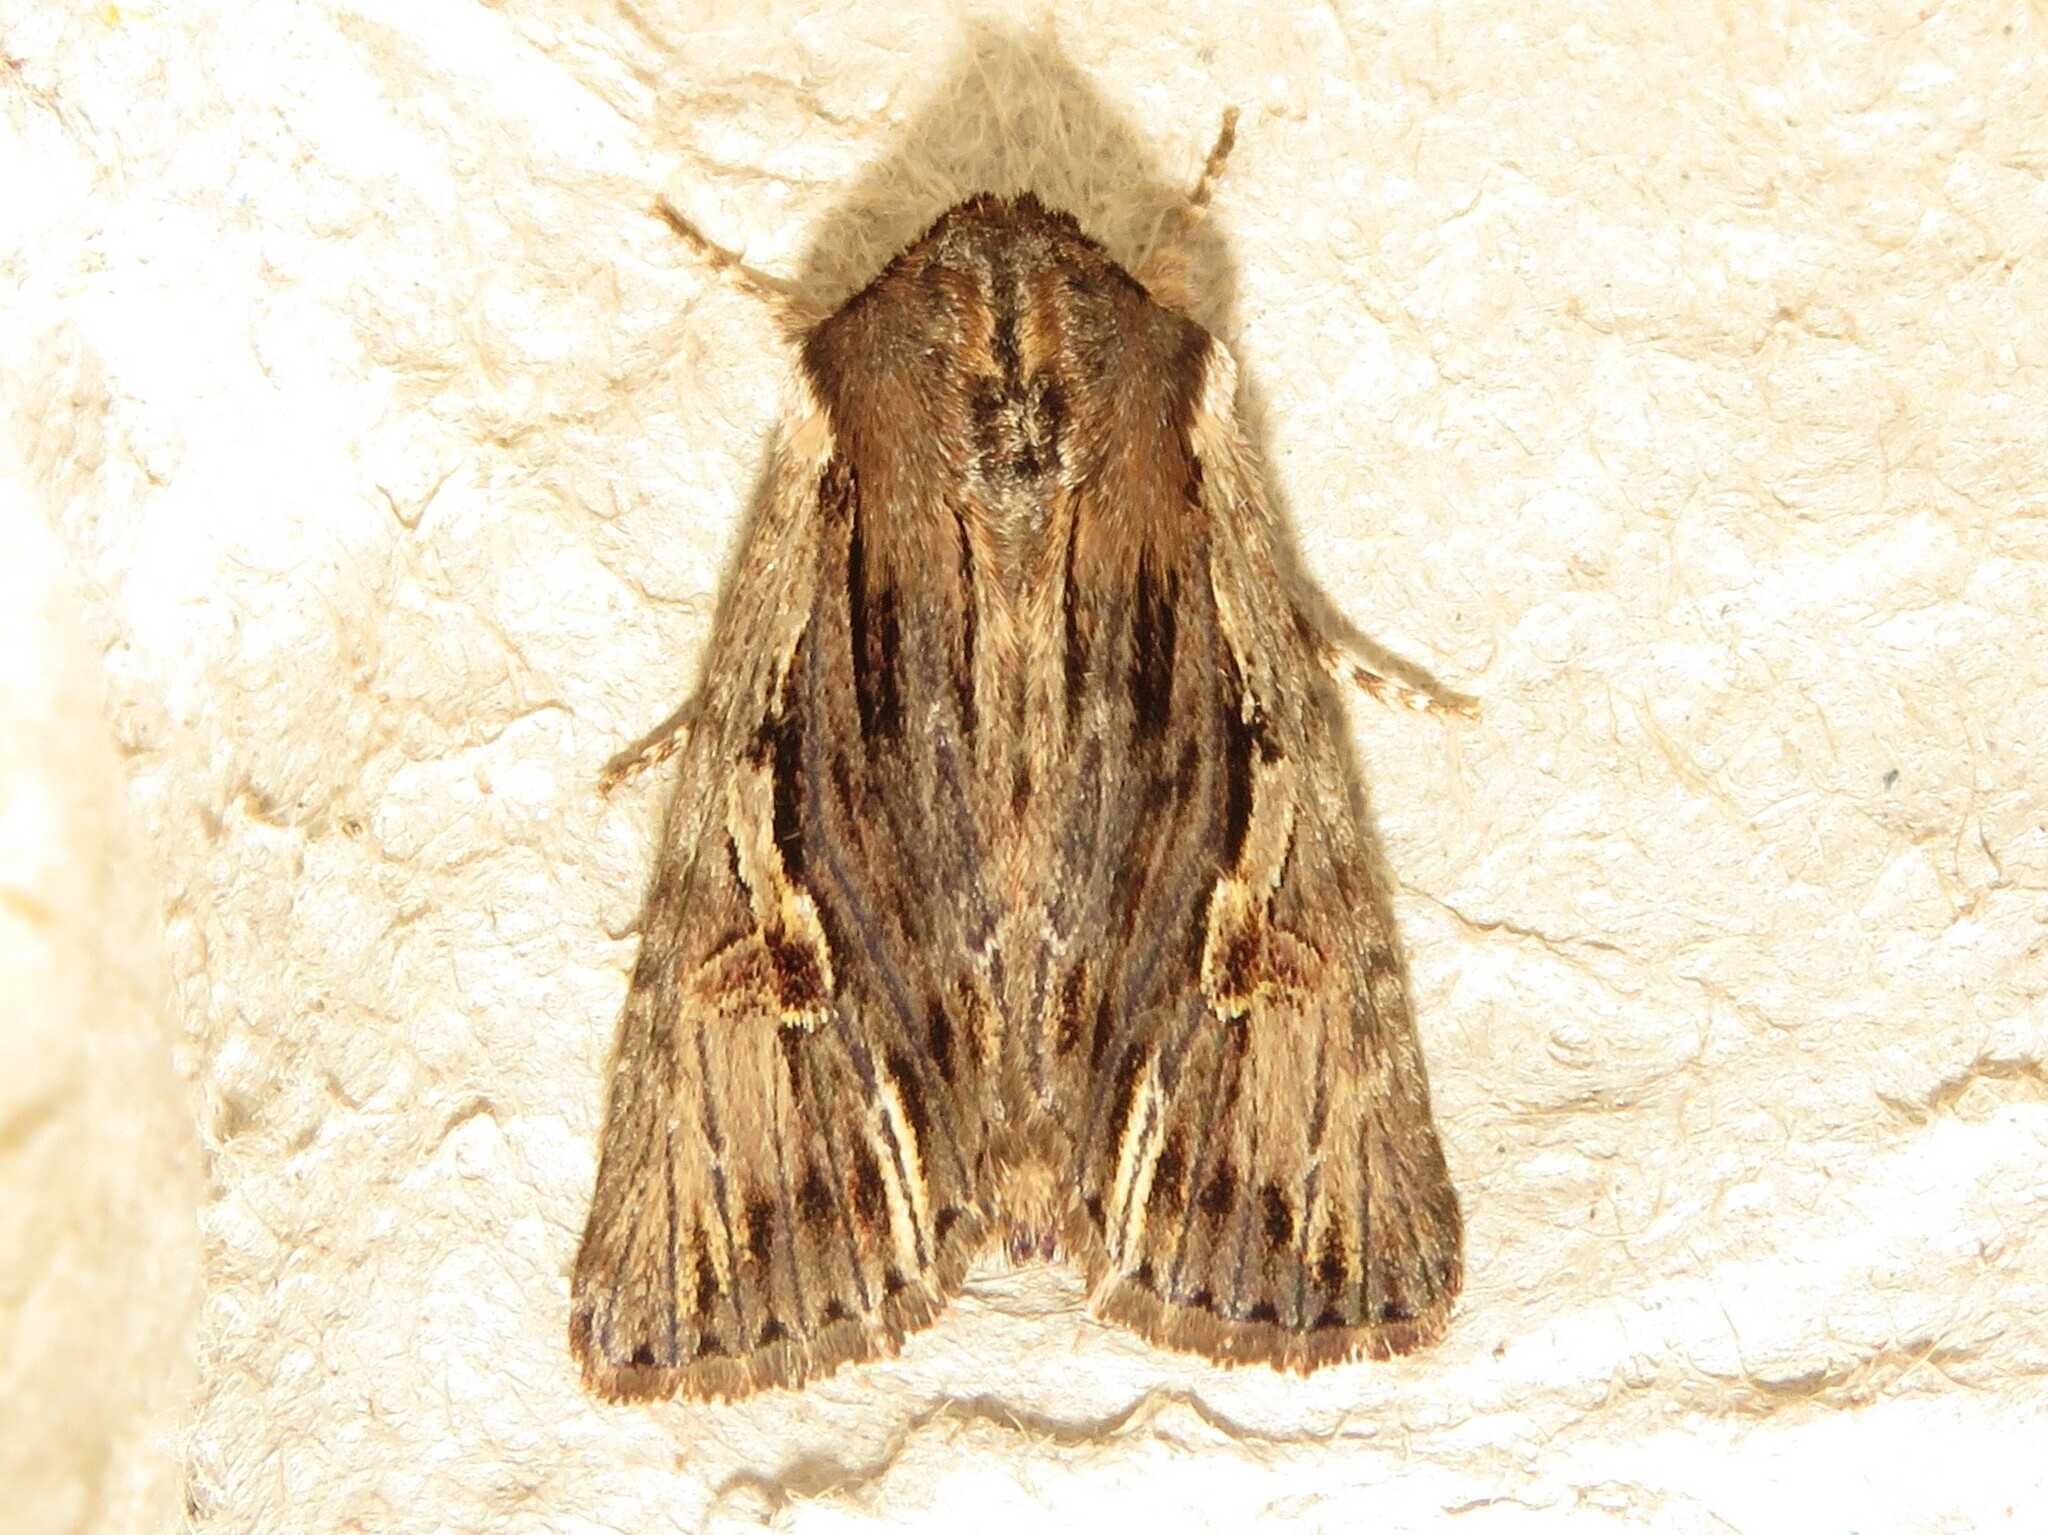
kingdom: Animalia
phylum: Arthropoda
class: Insecta
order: Lepidoptera
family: Noctuidae
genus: Achatia
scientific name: Achatia evicta
